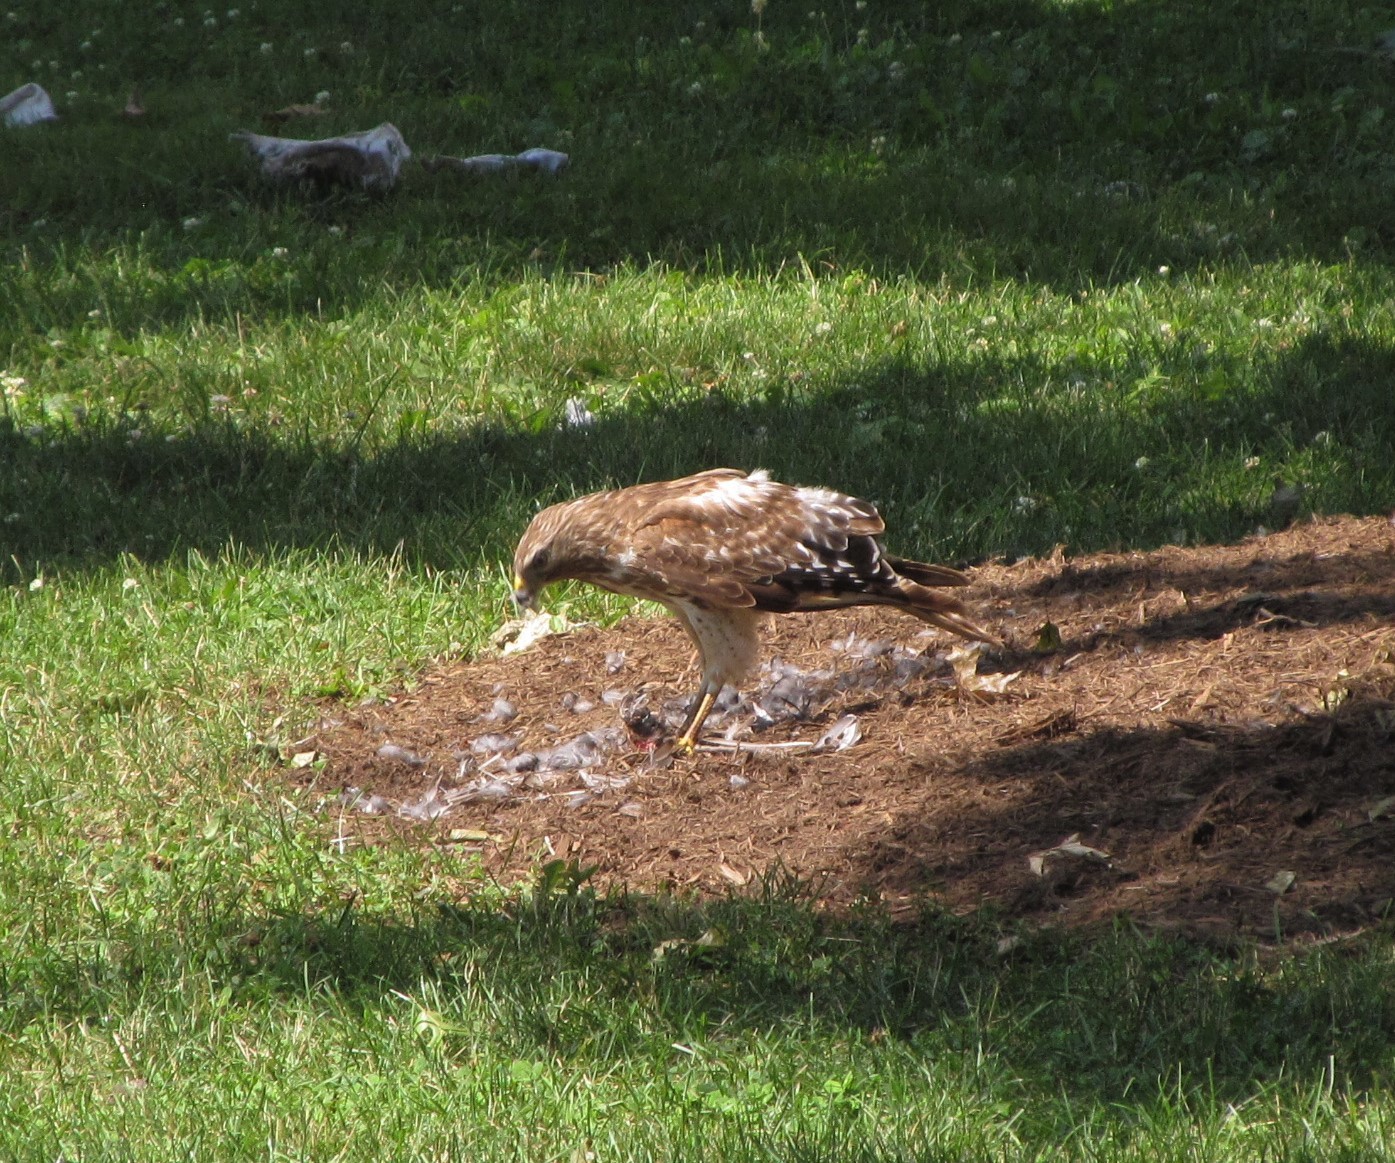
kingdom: Animalia
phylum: Chordata
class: Aves
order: Accipitriformes
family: Accipitridae
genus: Buteo
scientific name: Buteo lineatus
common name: Red-shouldered hawk
